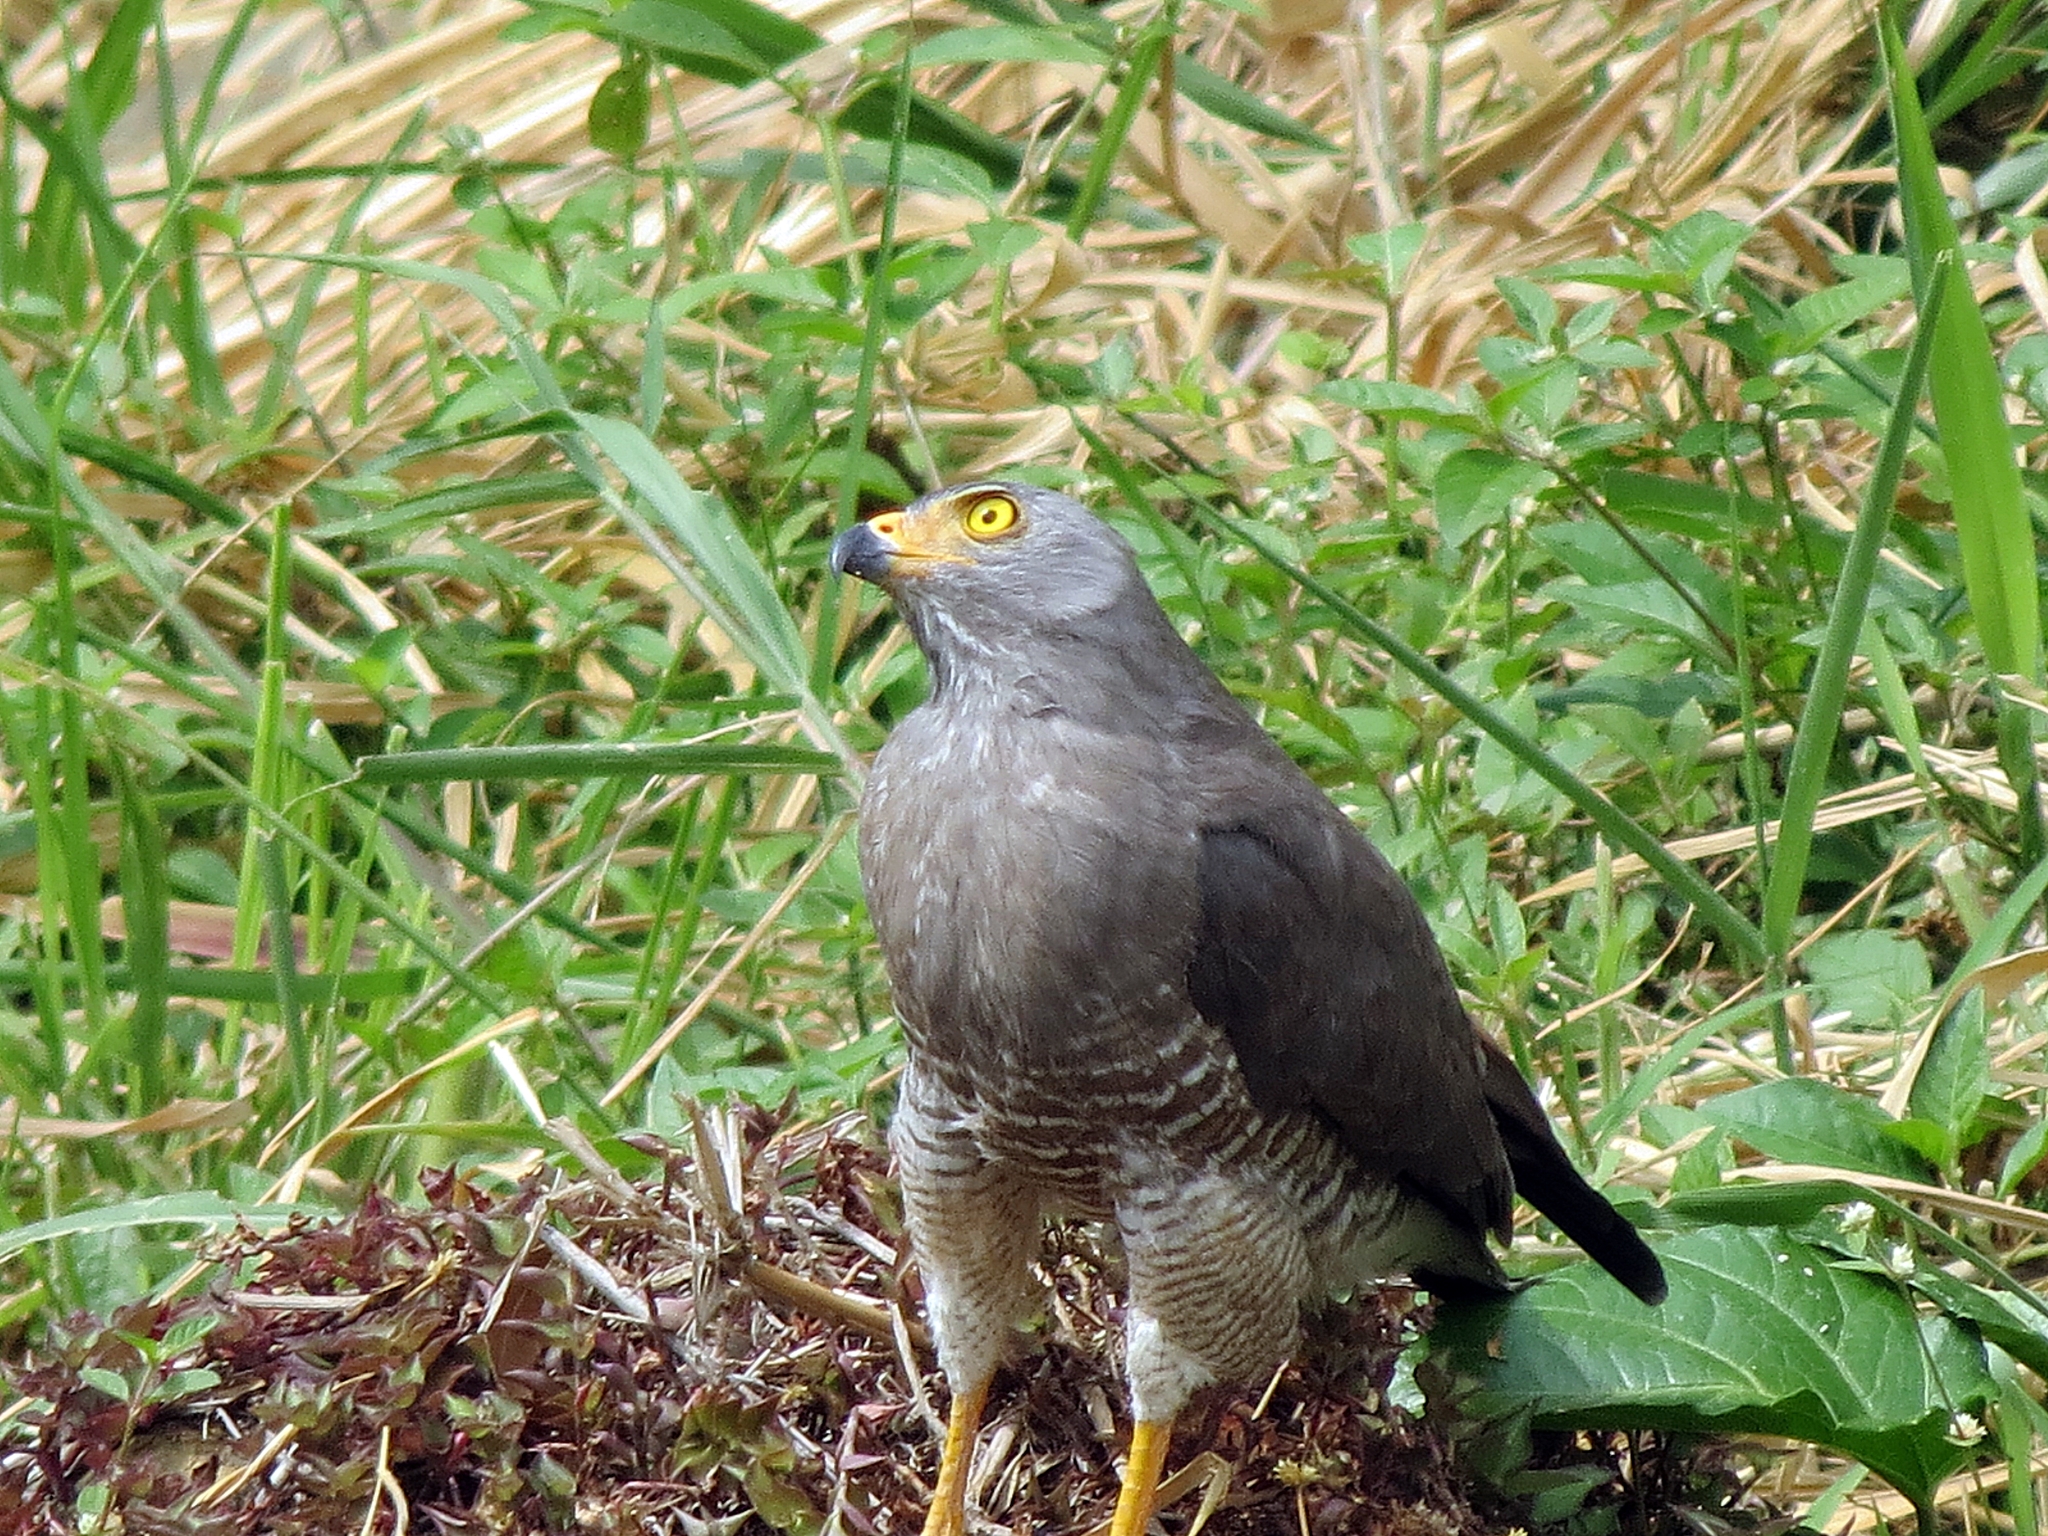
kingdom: Animalia
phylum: Chordata
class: Aves
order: Accipitriformes
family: Accipitridae
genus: Rupornis
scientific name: Rupornis magnirostris
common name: Roadside hawk
